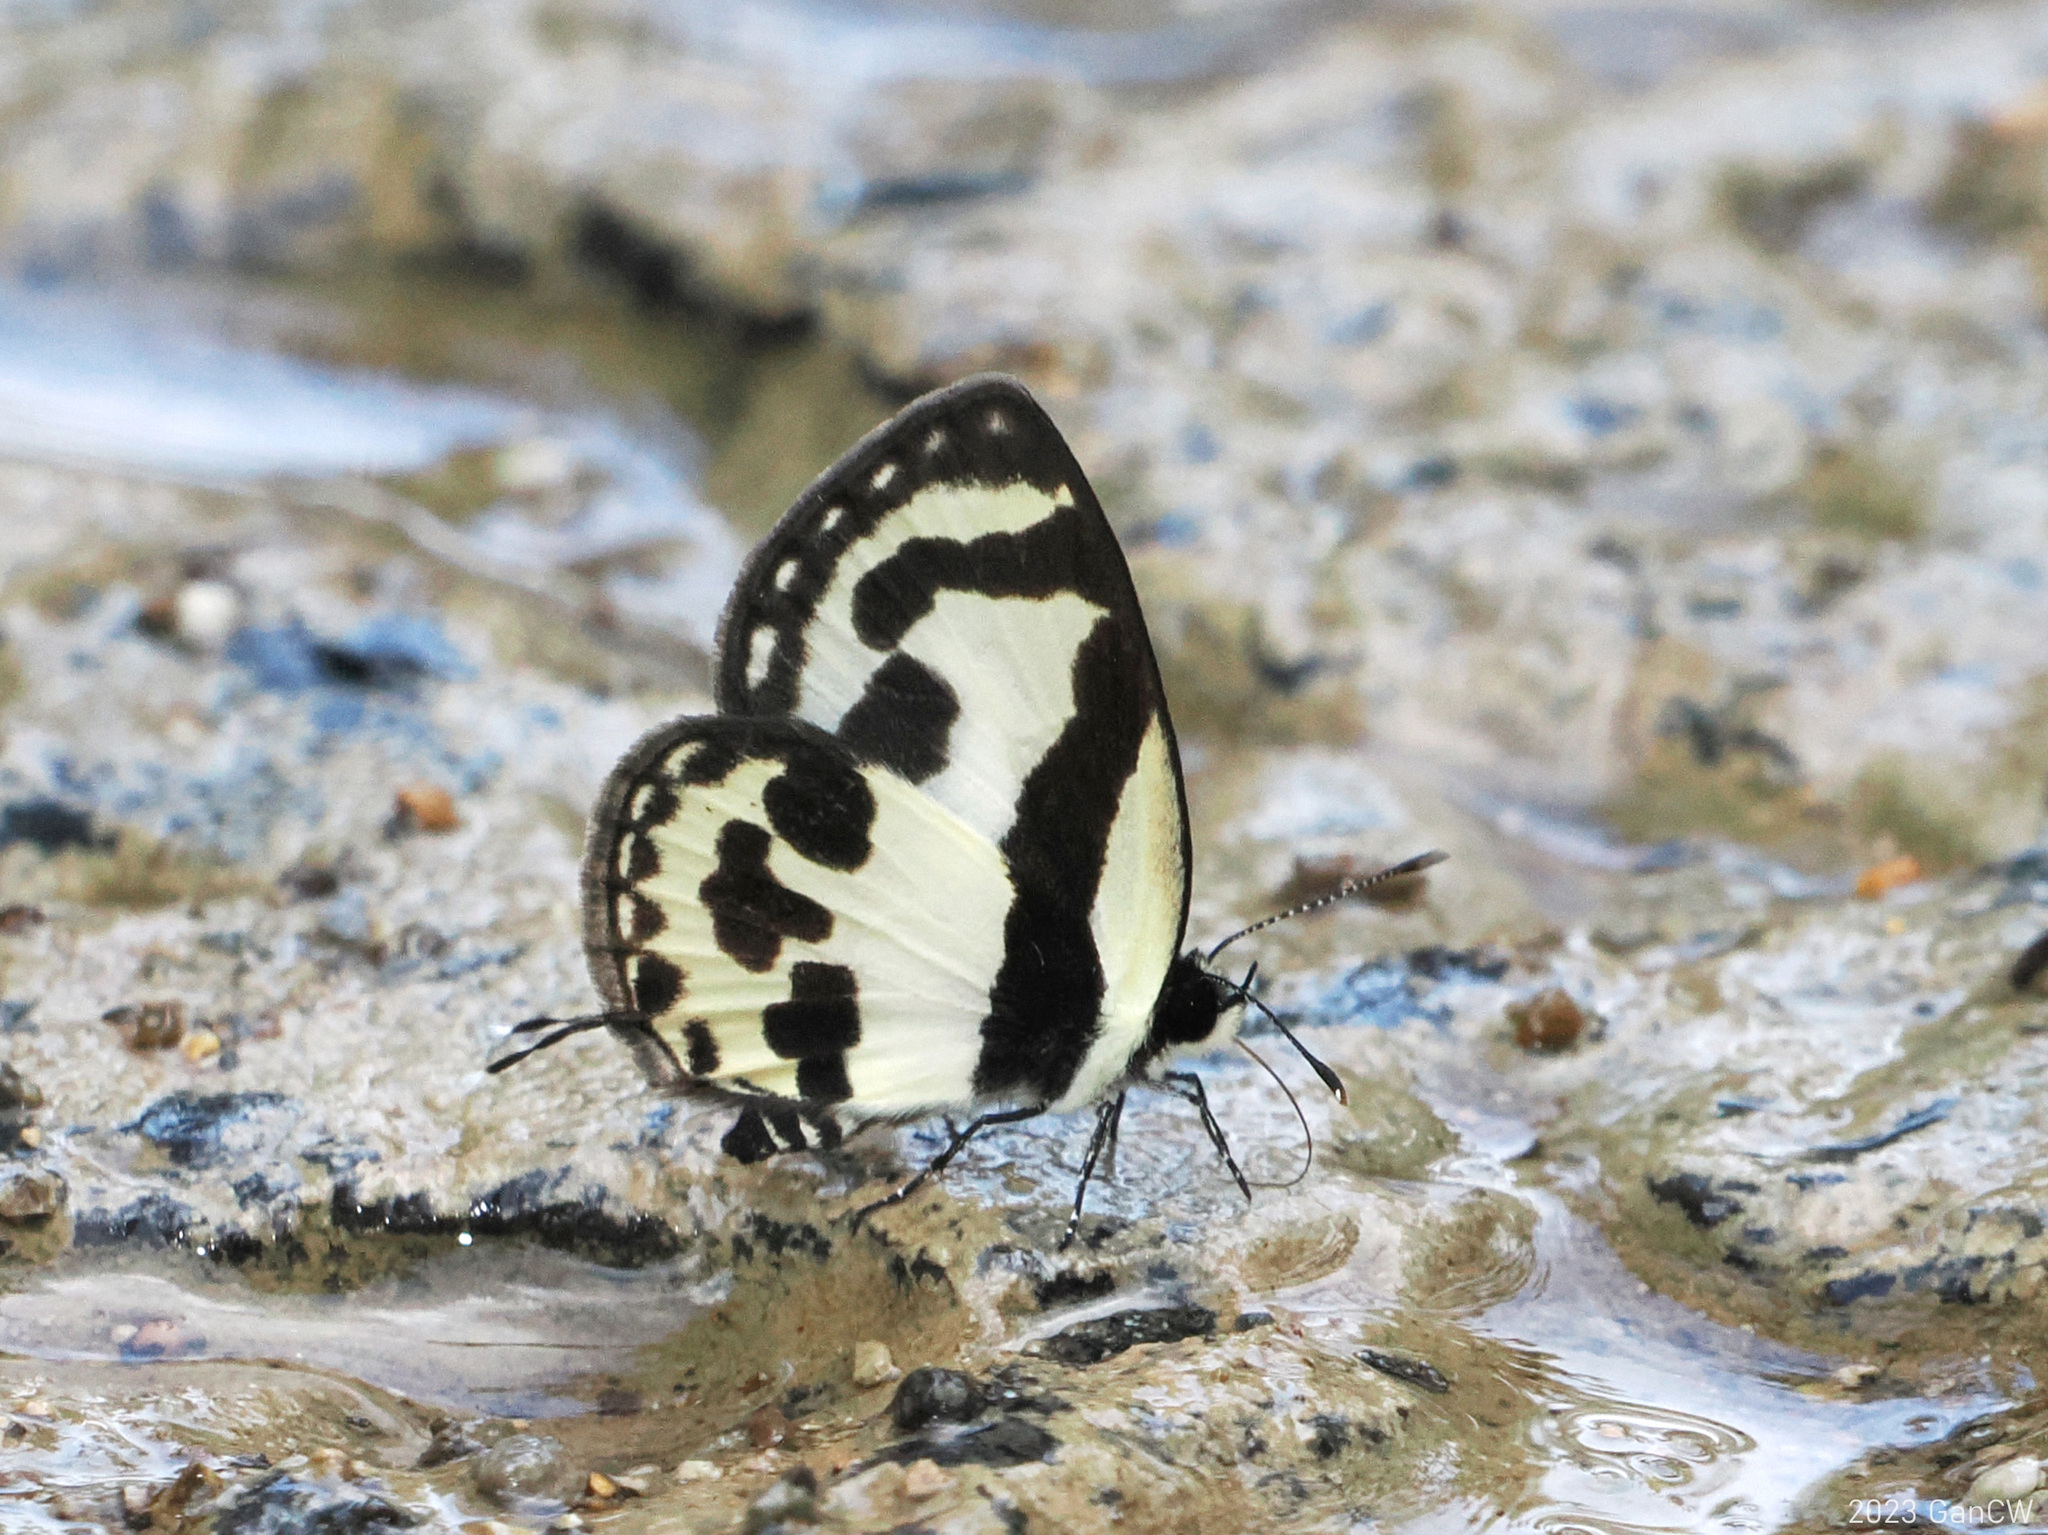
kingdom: Animalia
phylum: Arthropoda
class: Insecta
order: Lepidoptera
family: Lycaenidae
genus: Caleta
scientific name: Caleta
